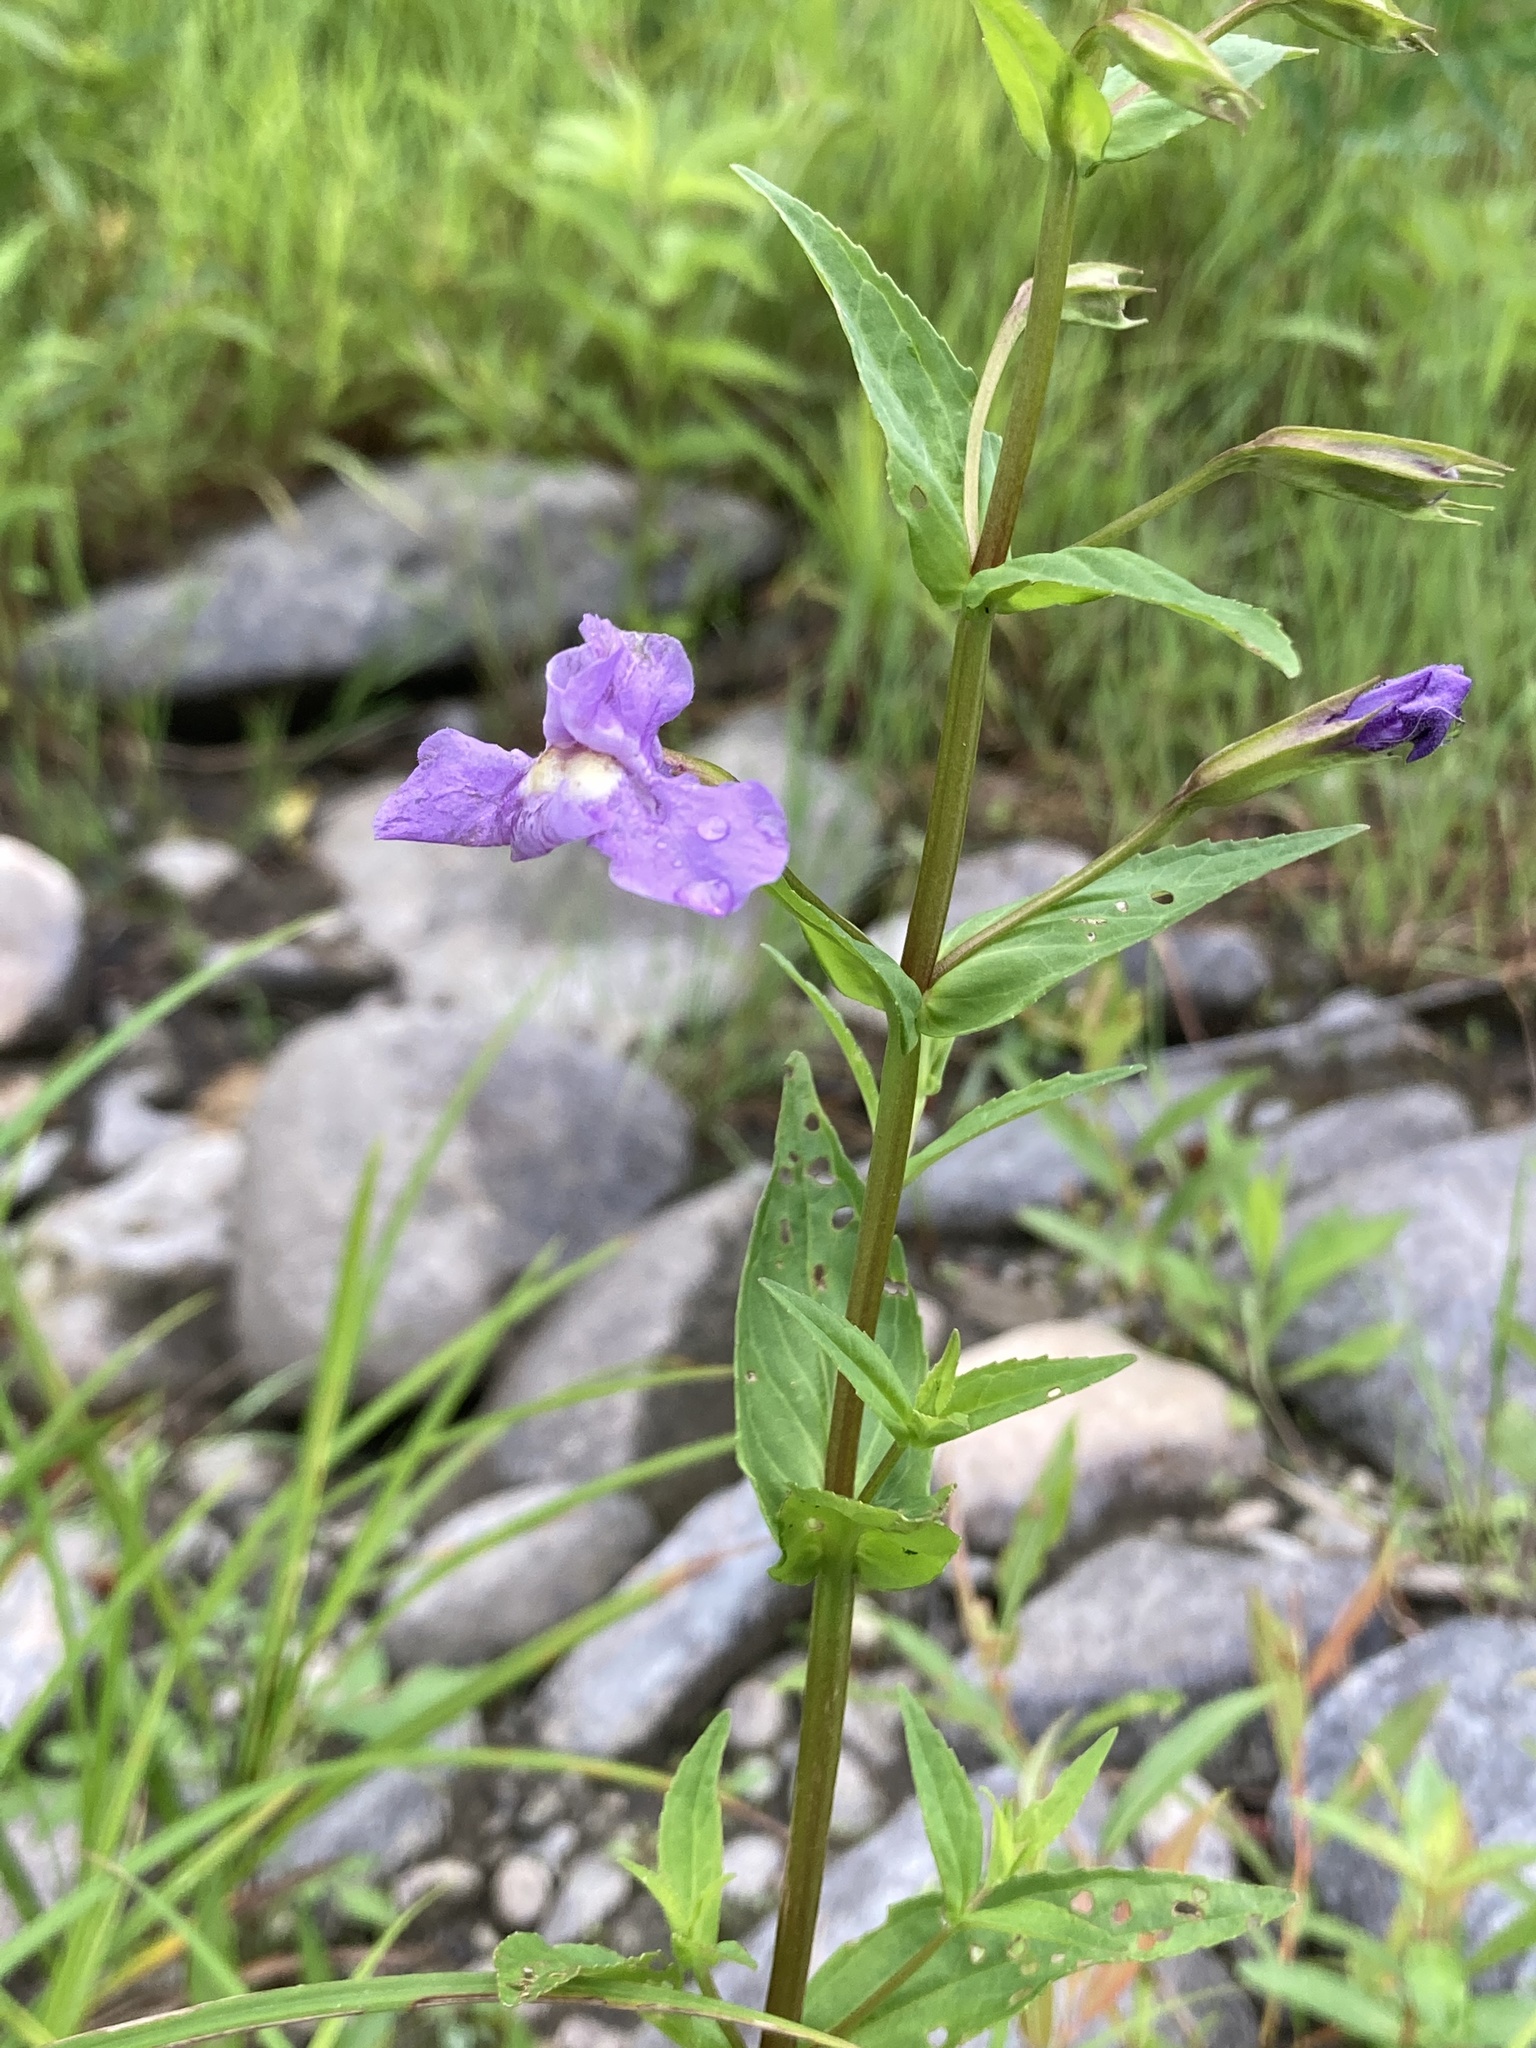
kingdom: Plantae
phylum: Tracheophyta
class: Magnoliopsida
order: Lamiales
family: Phrymaceae
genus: Mimulus
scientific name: Mimulus ringens
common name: Allegheny monkeyflower
